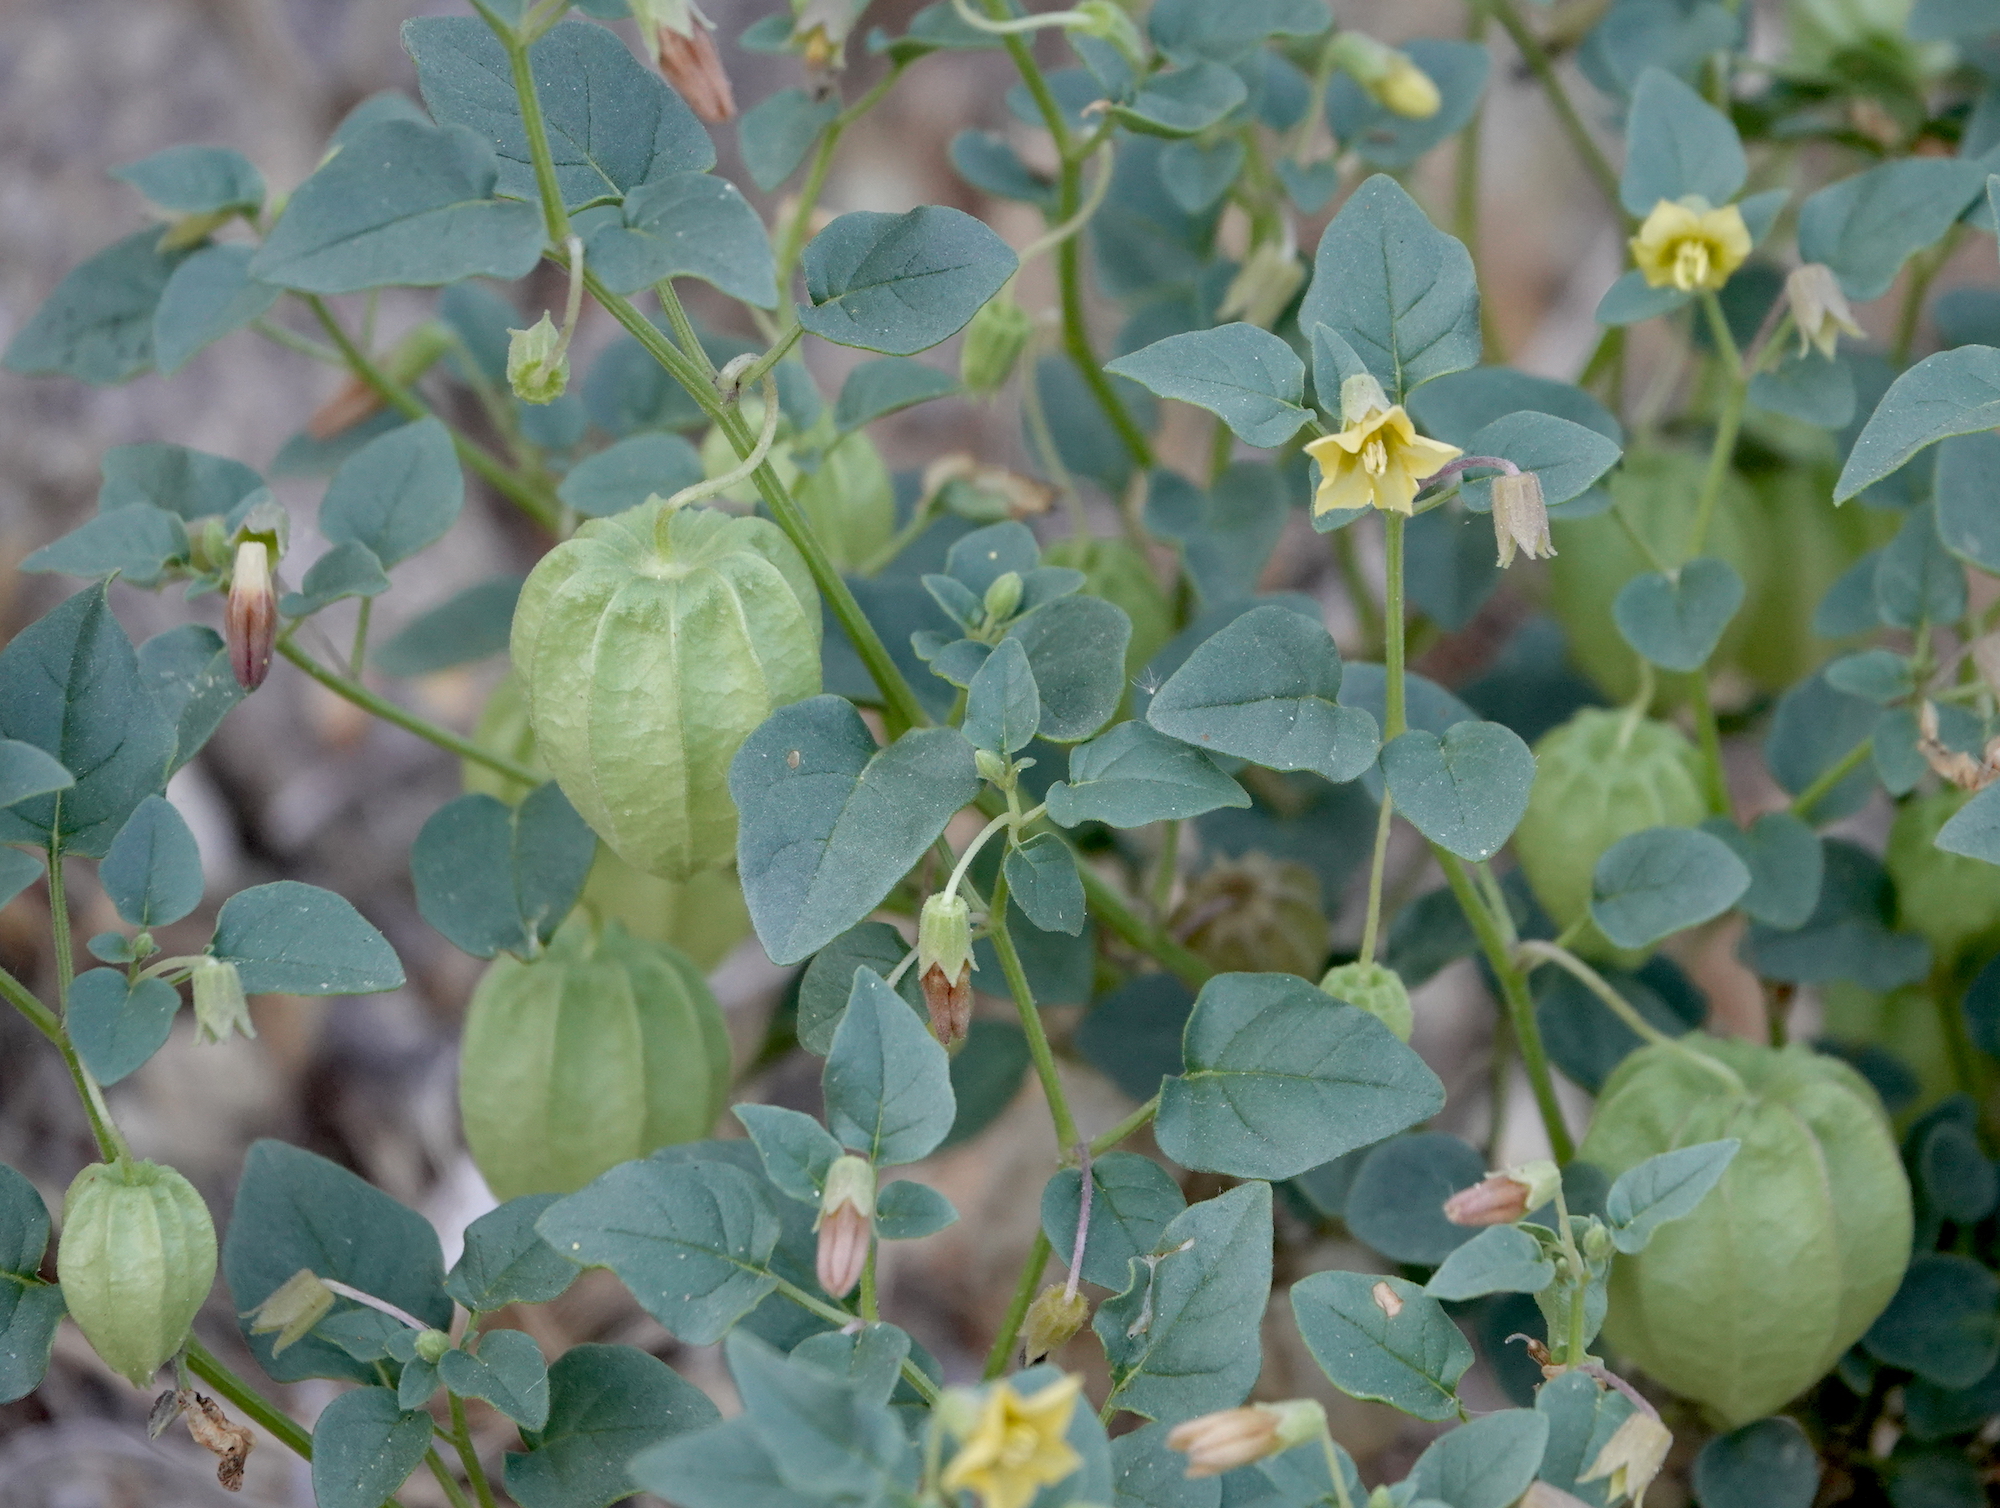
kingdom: Plantae
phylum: Tracheophyta
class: Magnoliopsida
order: Solanales
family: Solanaceae
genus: Physalis
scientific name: Physalis crassifolia
